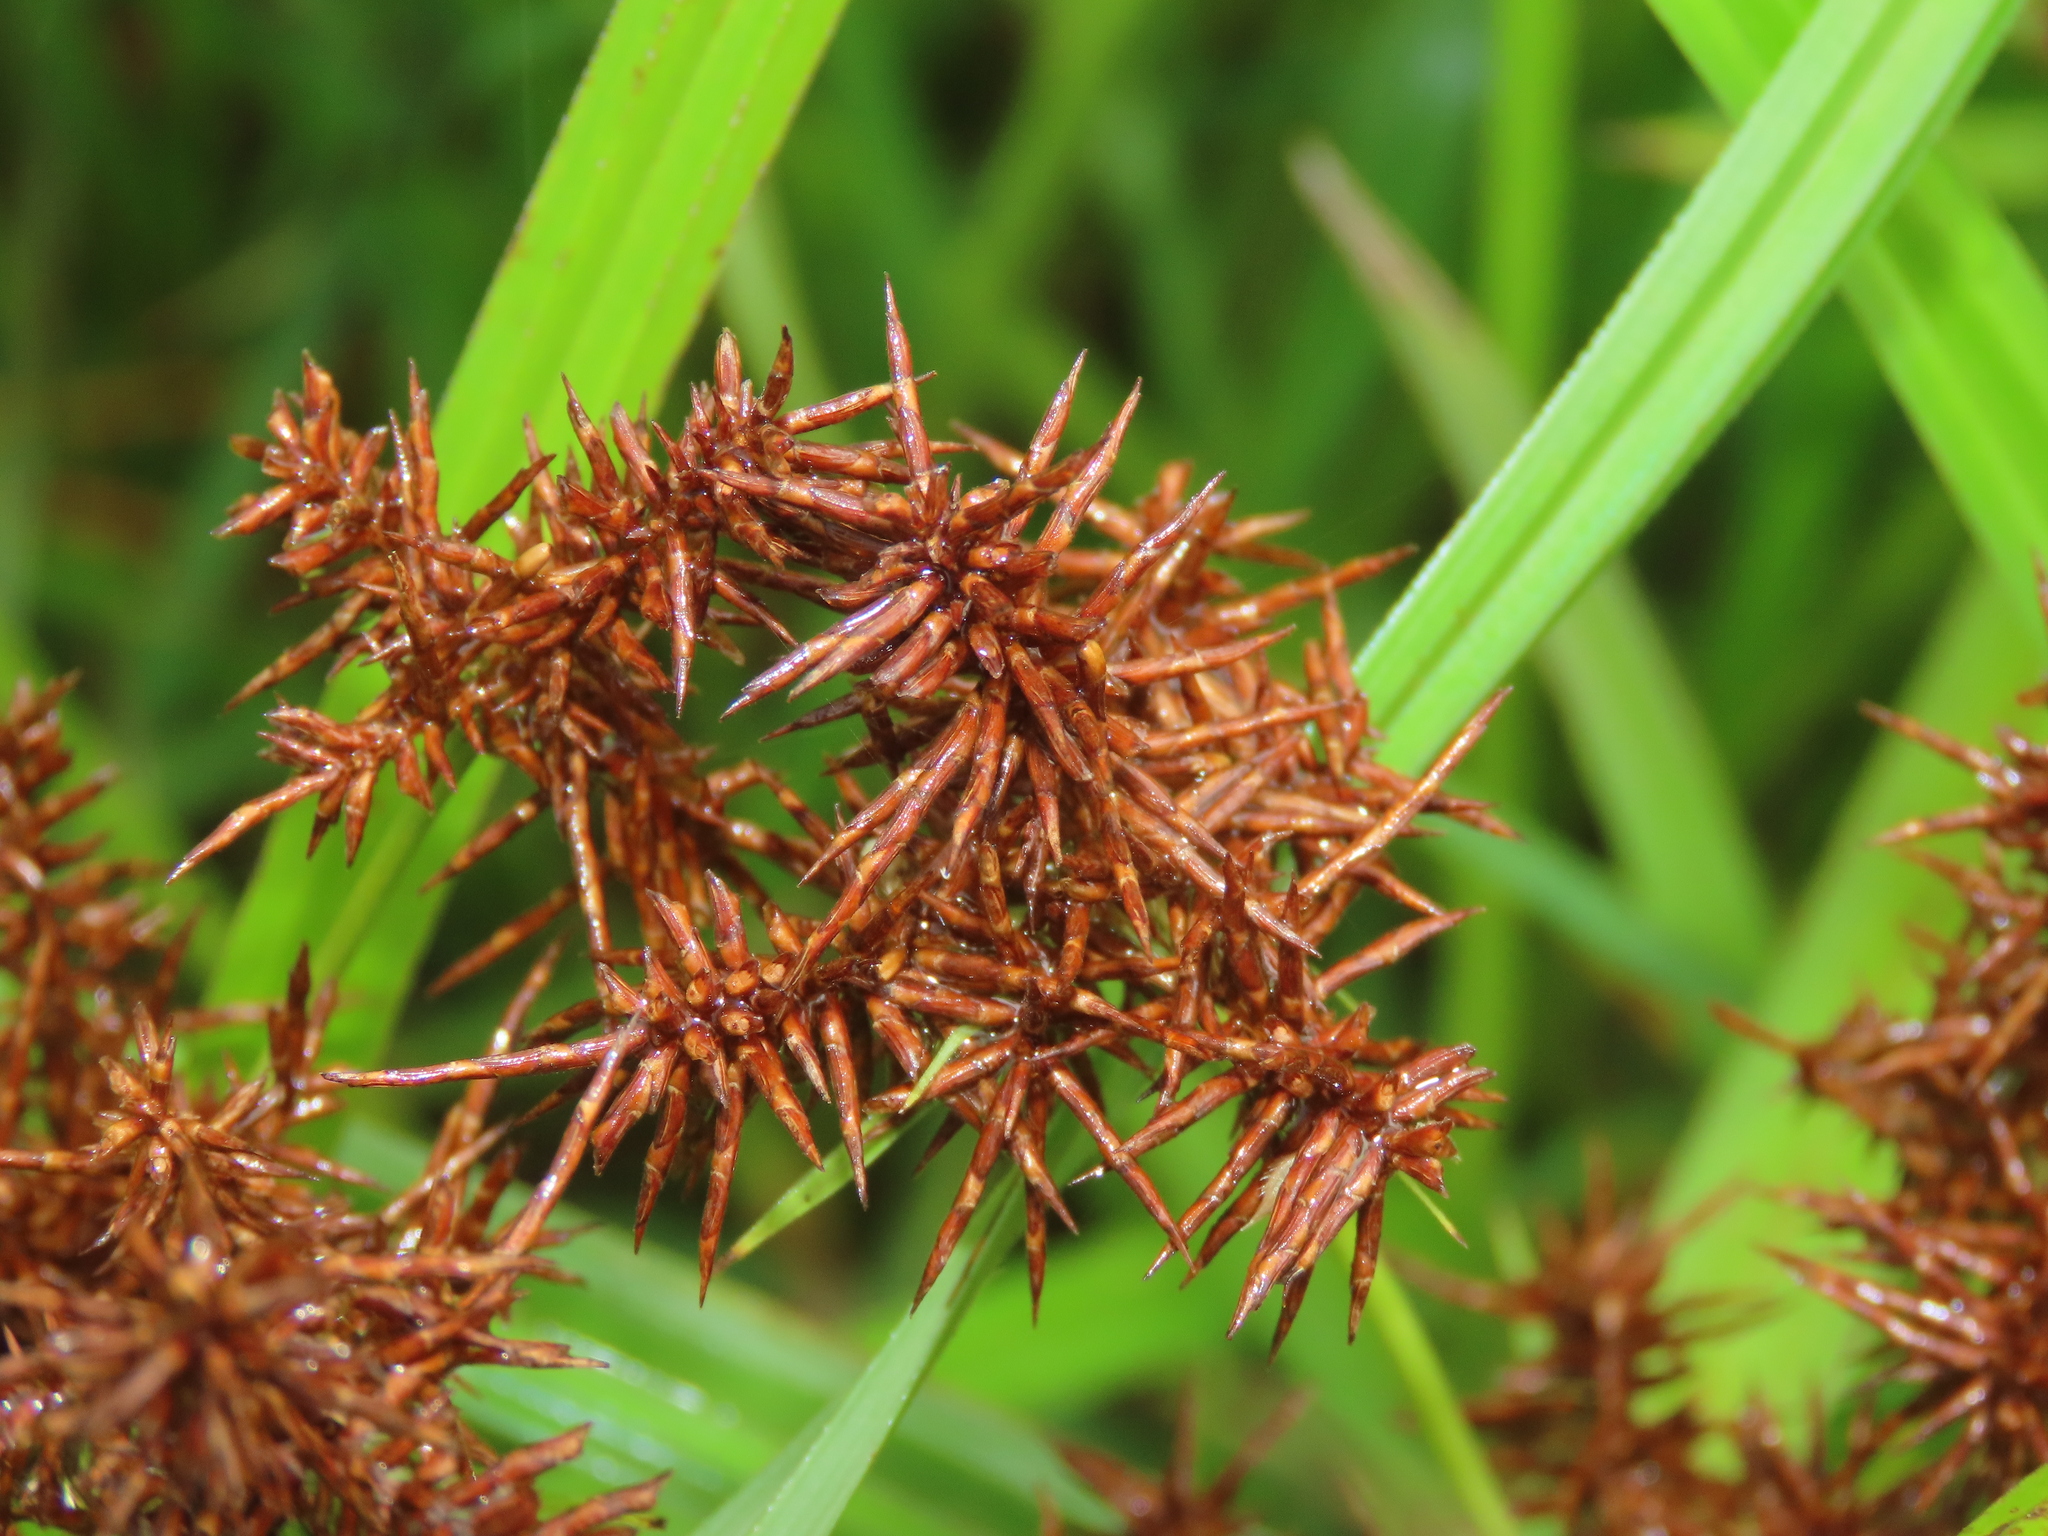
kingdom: Plantae
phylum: Tracheophyta
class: Liliopsida
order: Poales
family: Cyperaceae
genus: Cyperus
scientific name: Cyperus odoratus
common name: Fragrant flatsedge
